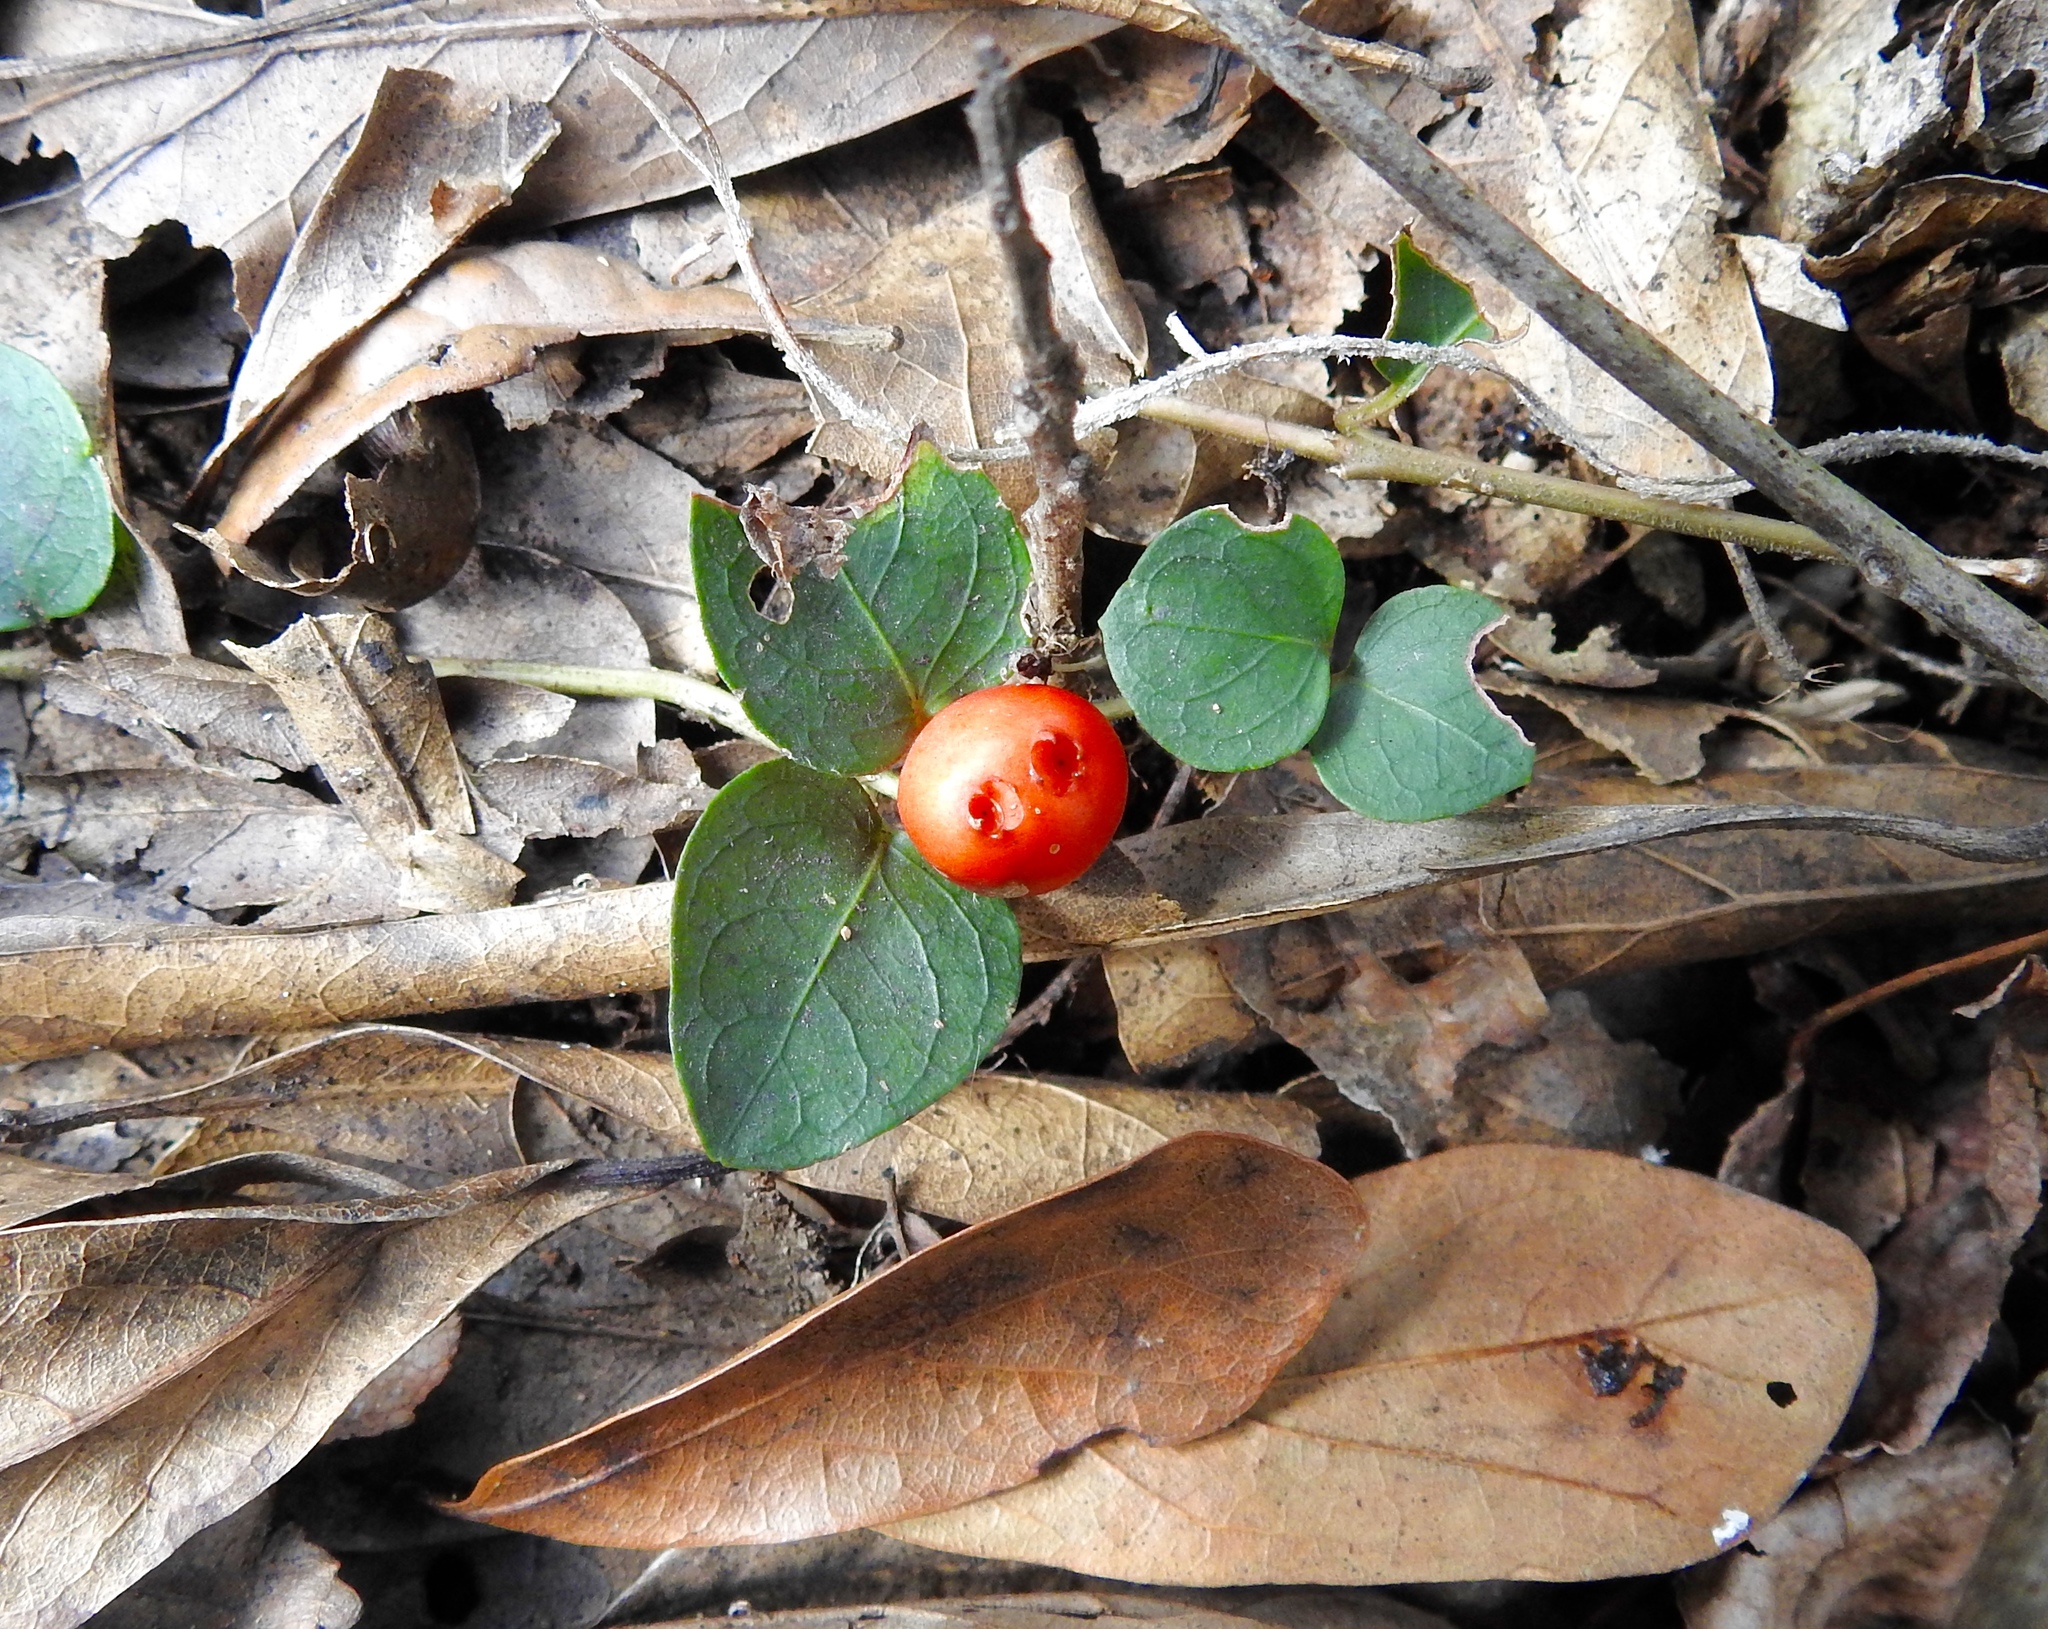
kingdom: Plantae
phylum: Tracheophyta
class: Magnoliopsida
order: Gentianales
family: Rubiaceae
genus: Mitchella
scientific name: Mitchella repens
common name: Partridge-berry
